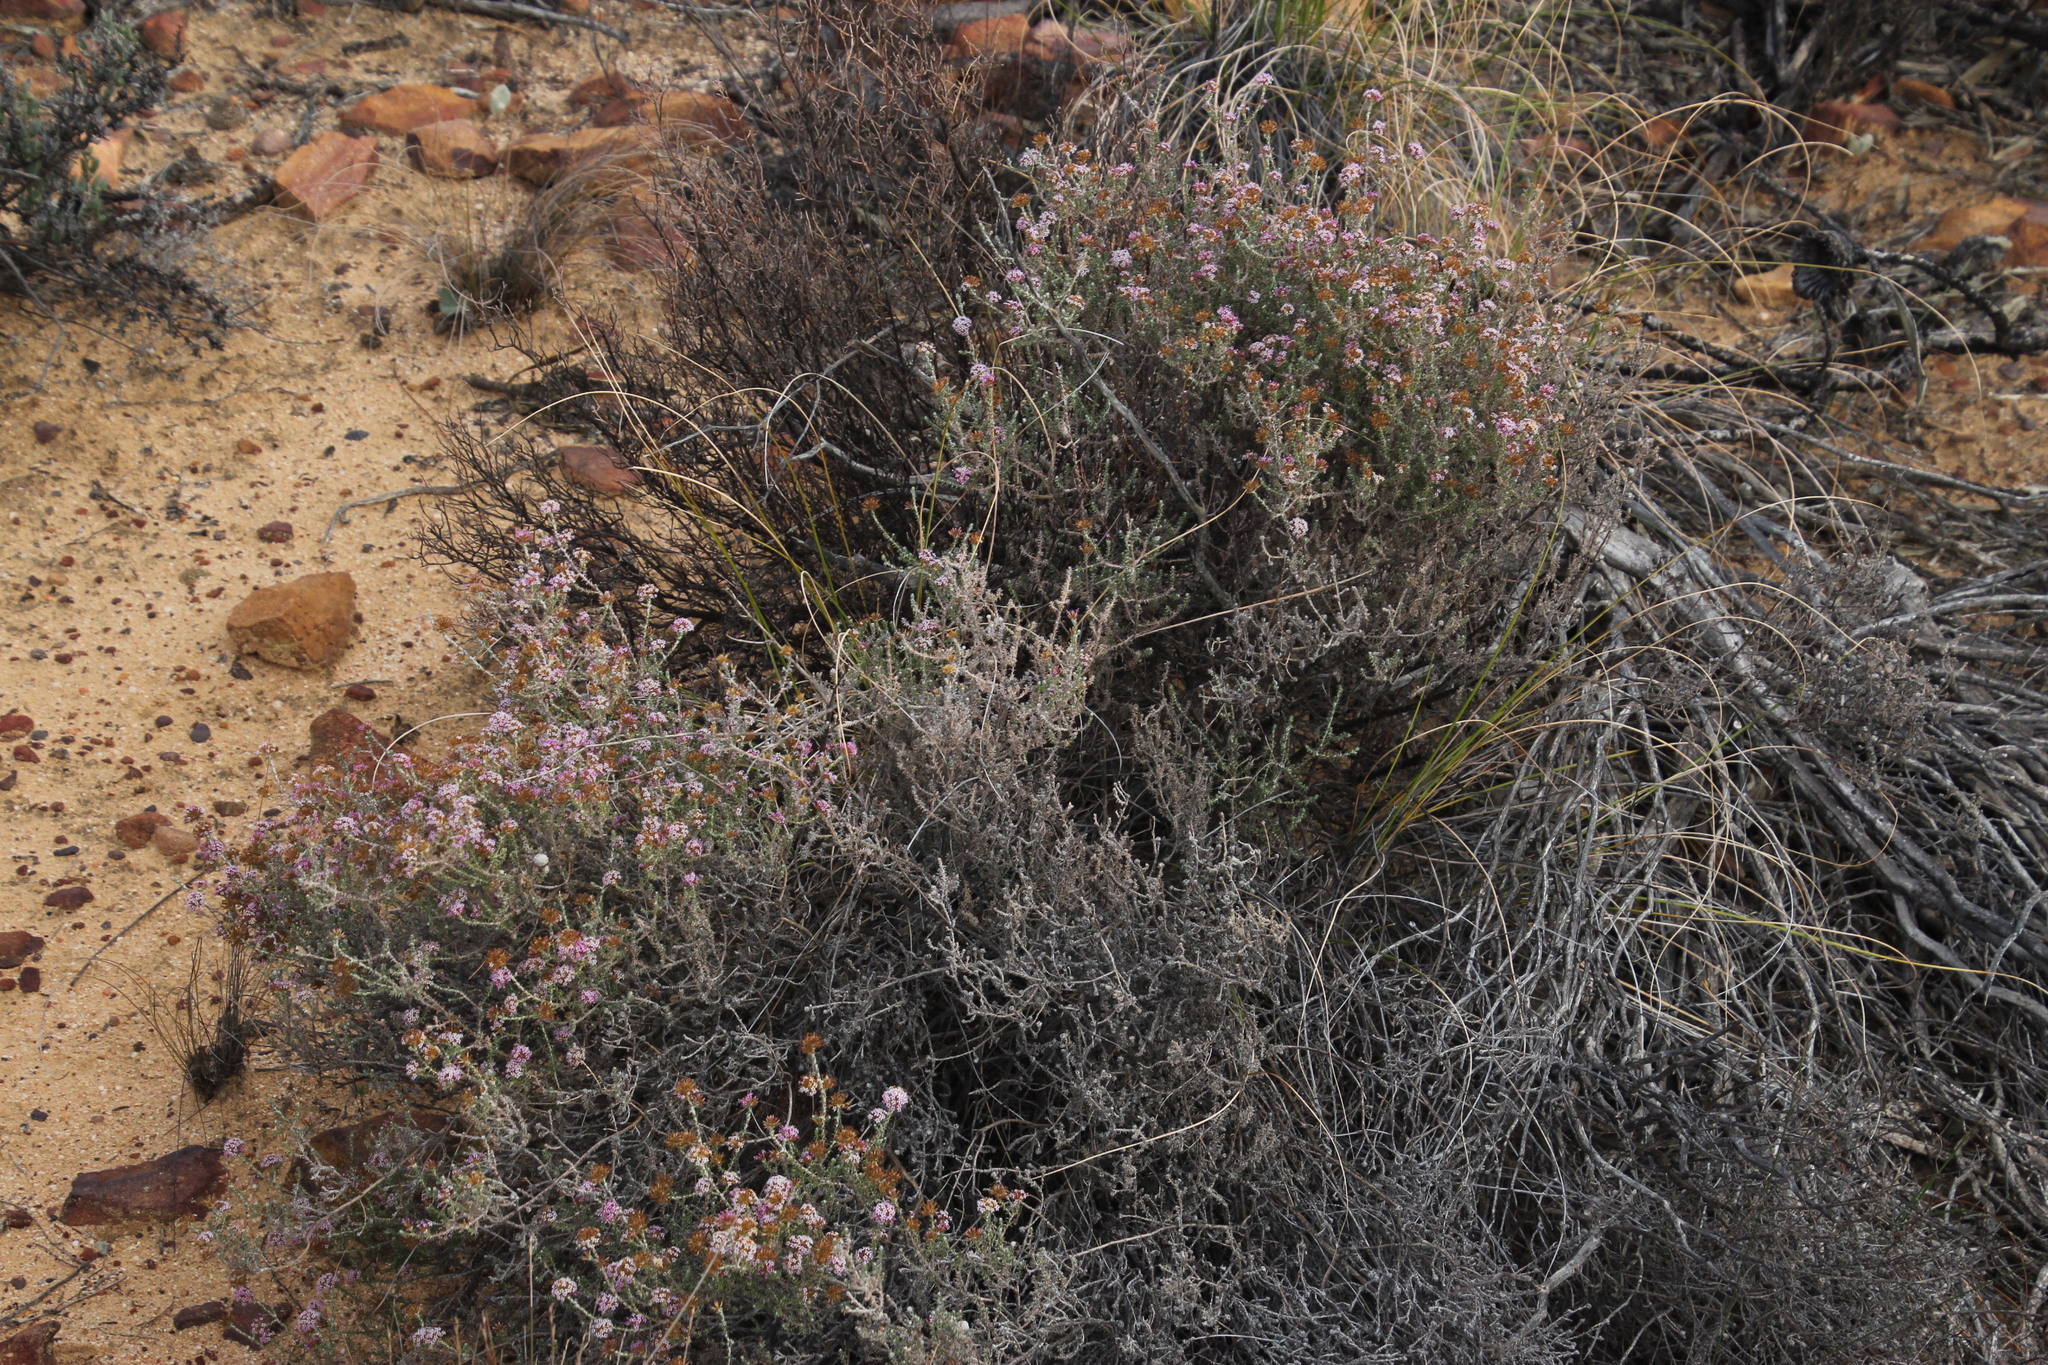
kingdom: Plantae
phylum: Tracheophyta
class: Magnoliopsida
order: Asterales
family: Asteraceae
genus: Stoebe
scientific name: Stoebe fusca
